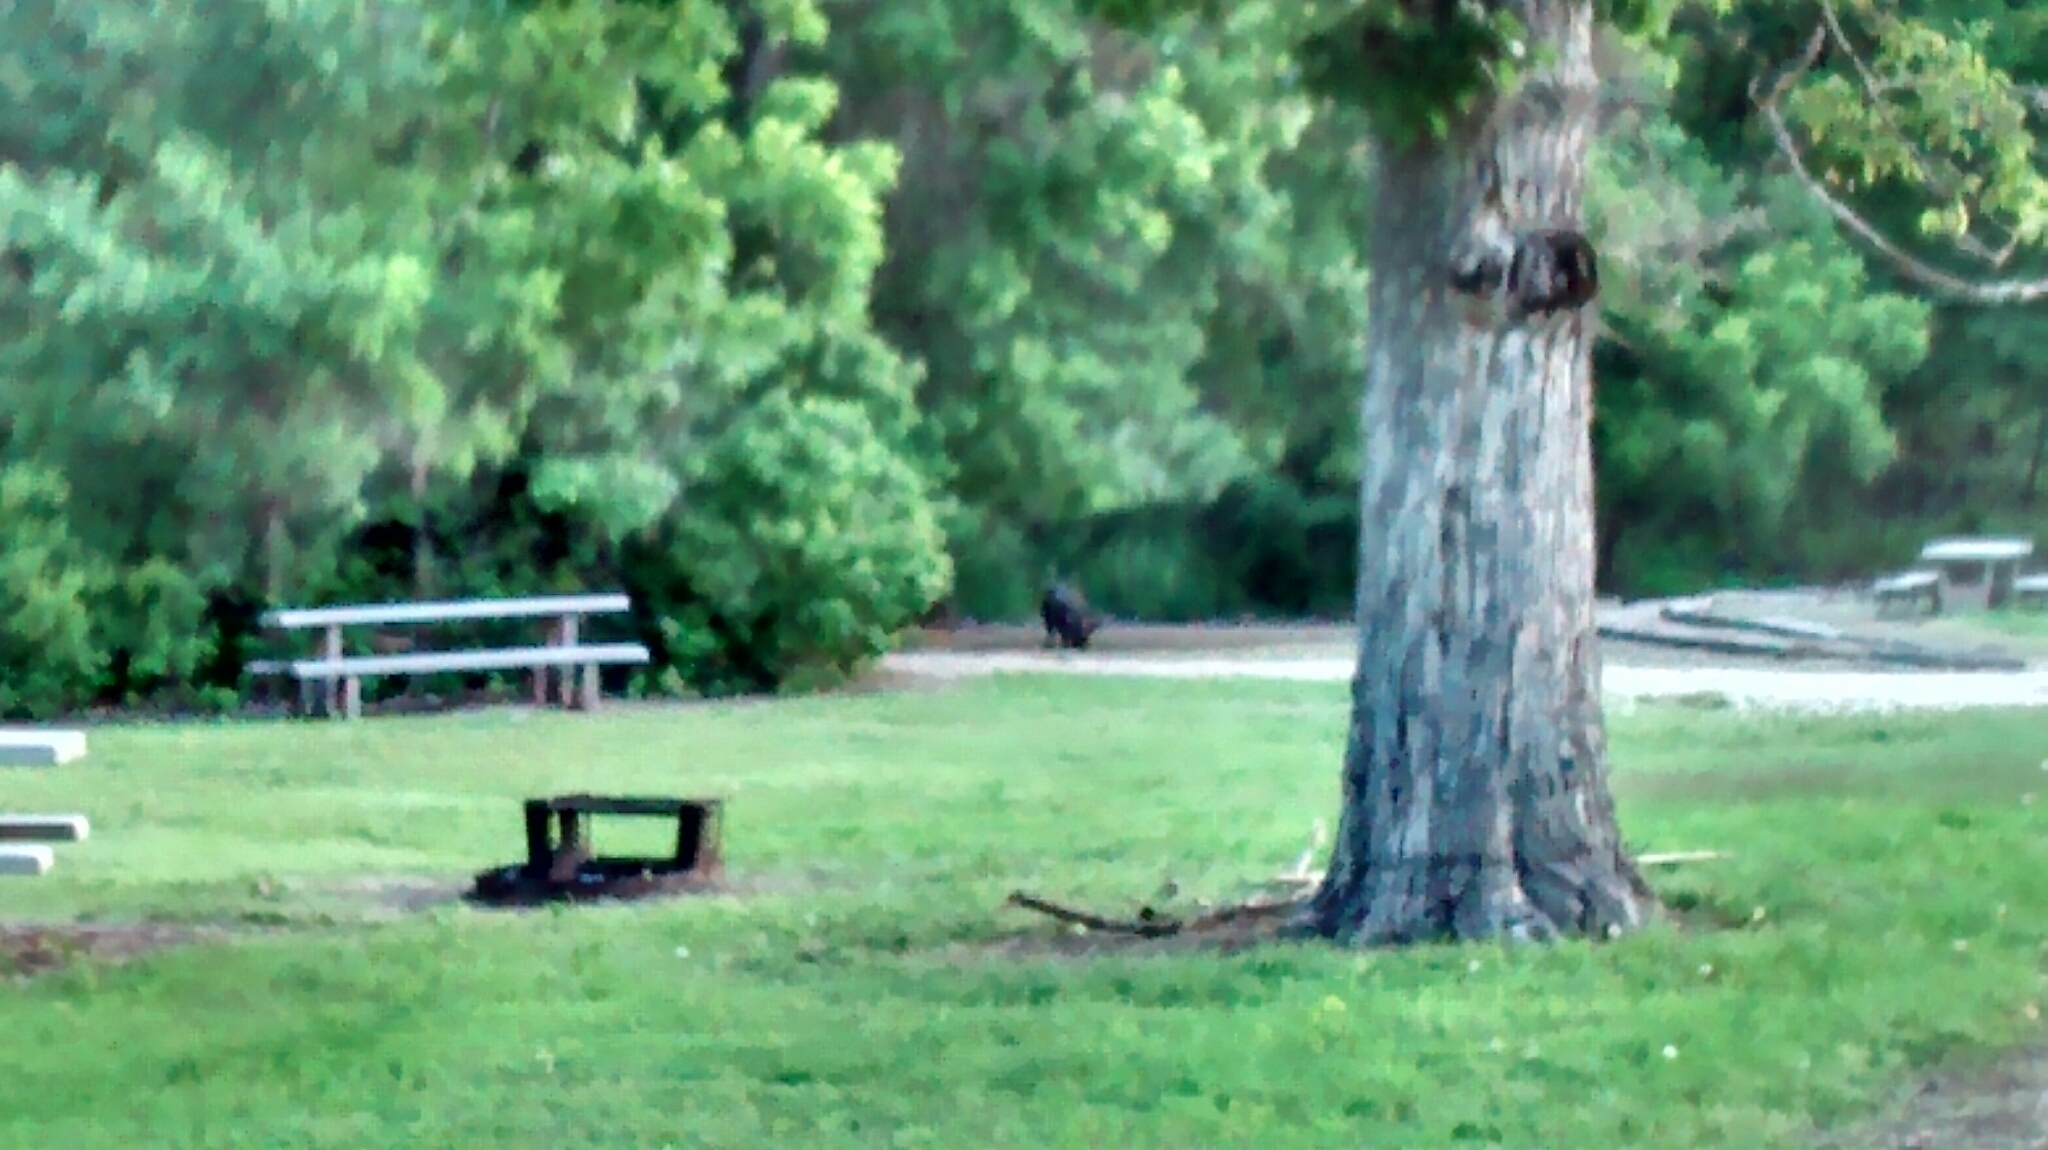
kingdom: Animalia
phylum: Chordata
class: Mammalia
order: Artiodactyla
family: Suidae
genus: Sus
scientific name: Sus scrofa
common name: Wild boar
